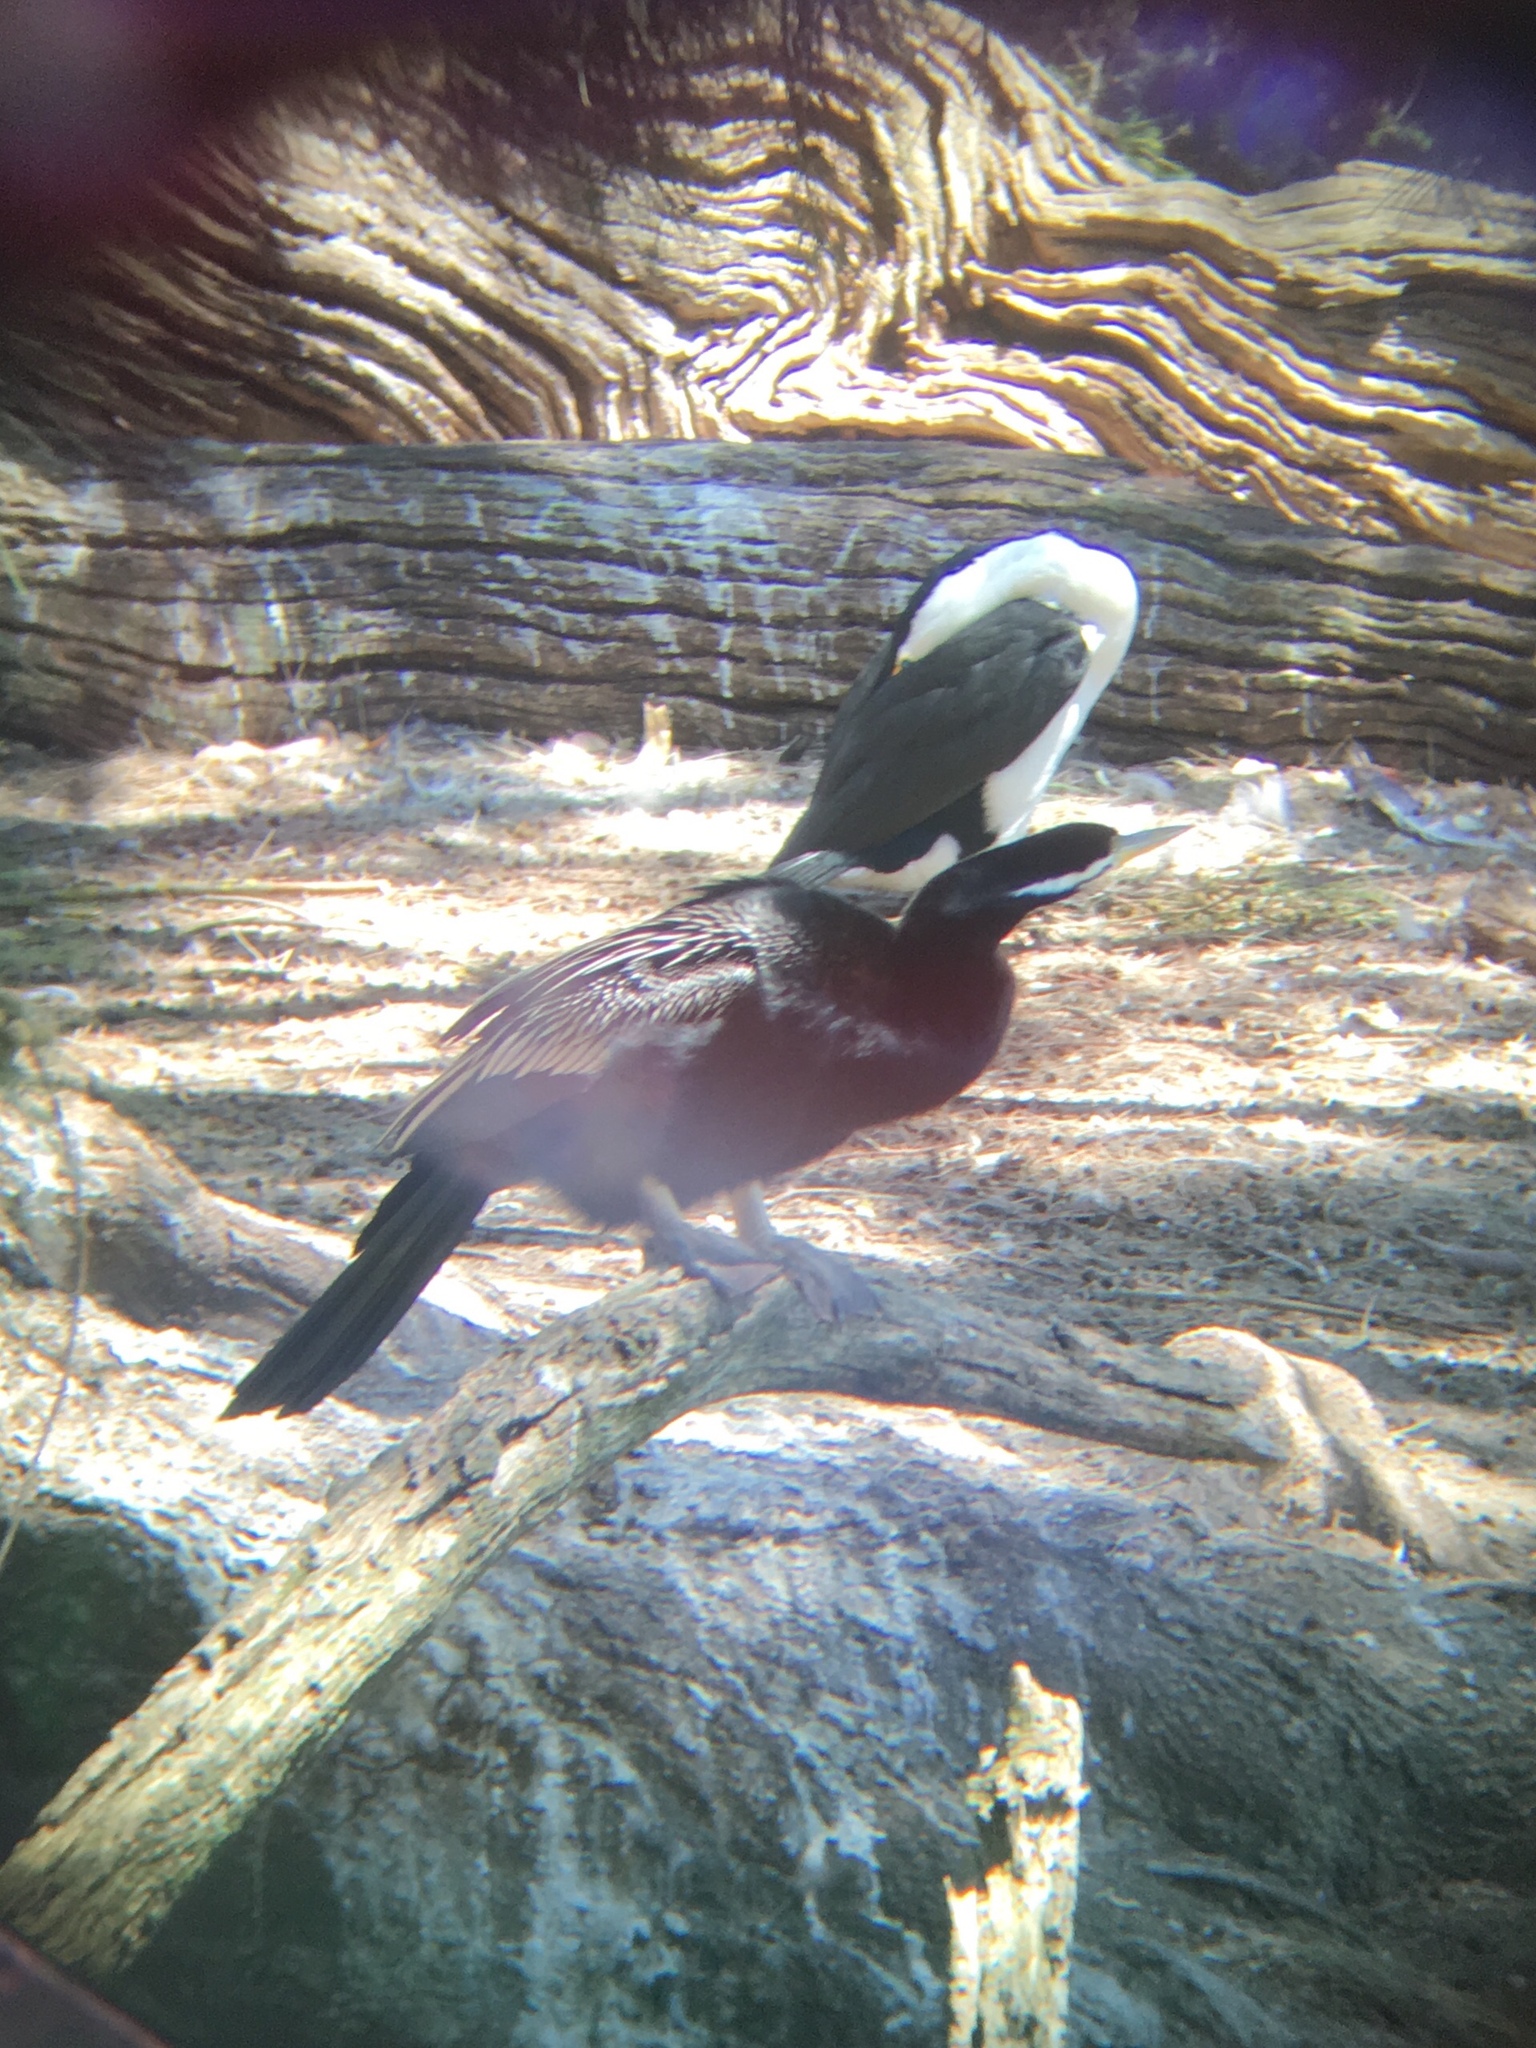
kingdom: Animalia
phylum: Chordata
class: Aves
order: Suliformes
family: Anhingidae
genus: Anhinga
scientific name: Anhinga novaehollandiae
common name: Australasian darter
